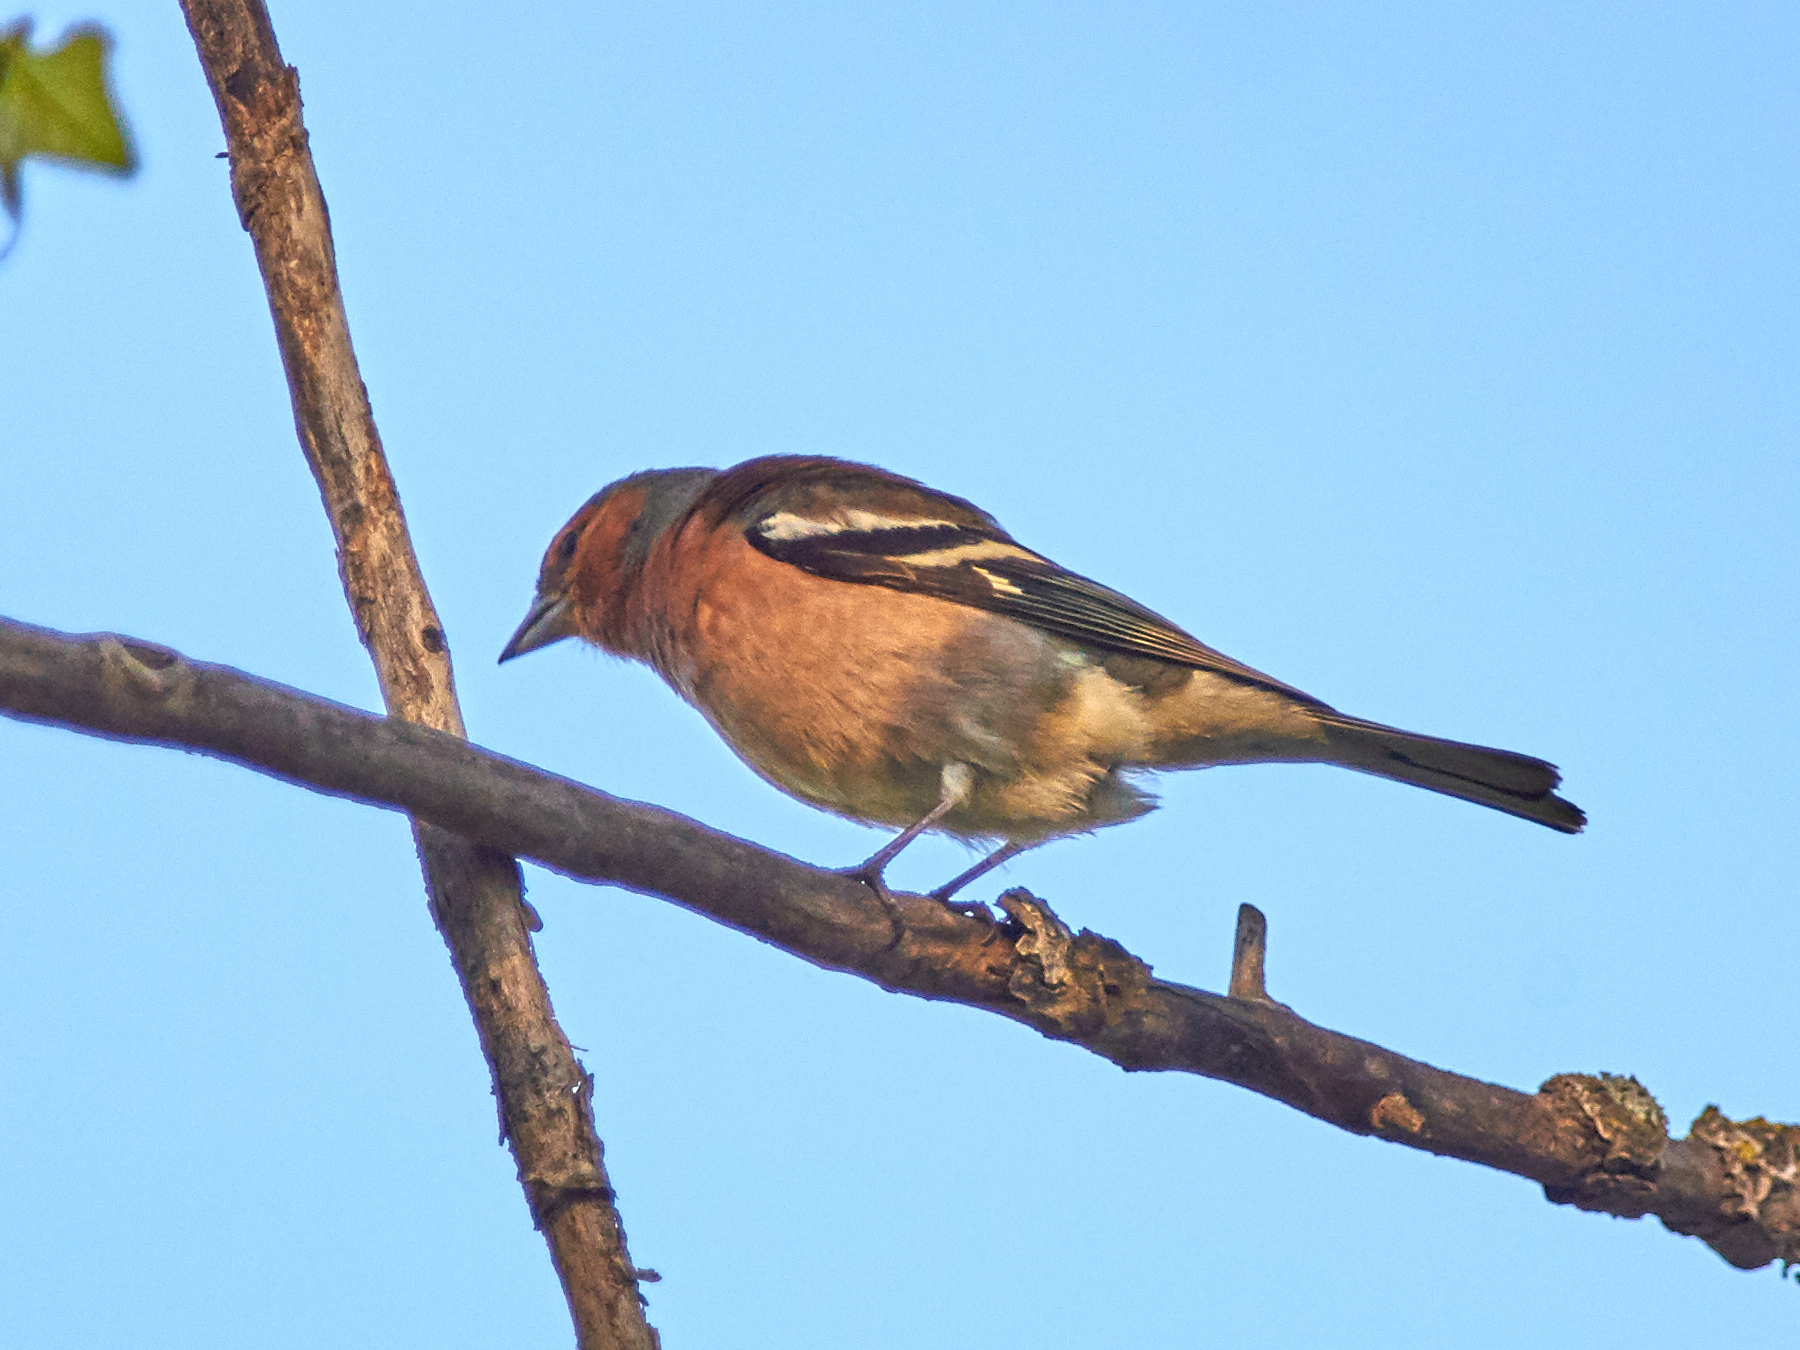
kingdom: Animalia
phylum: Chordata
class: Aves
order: Passeriformes
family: Fringillidae
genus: Fringilla
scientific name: Fringilla coelebs
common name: Common chaffinch
